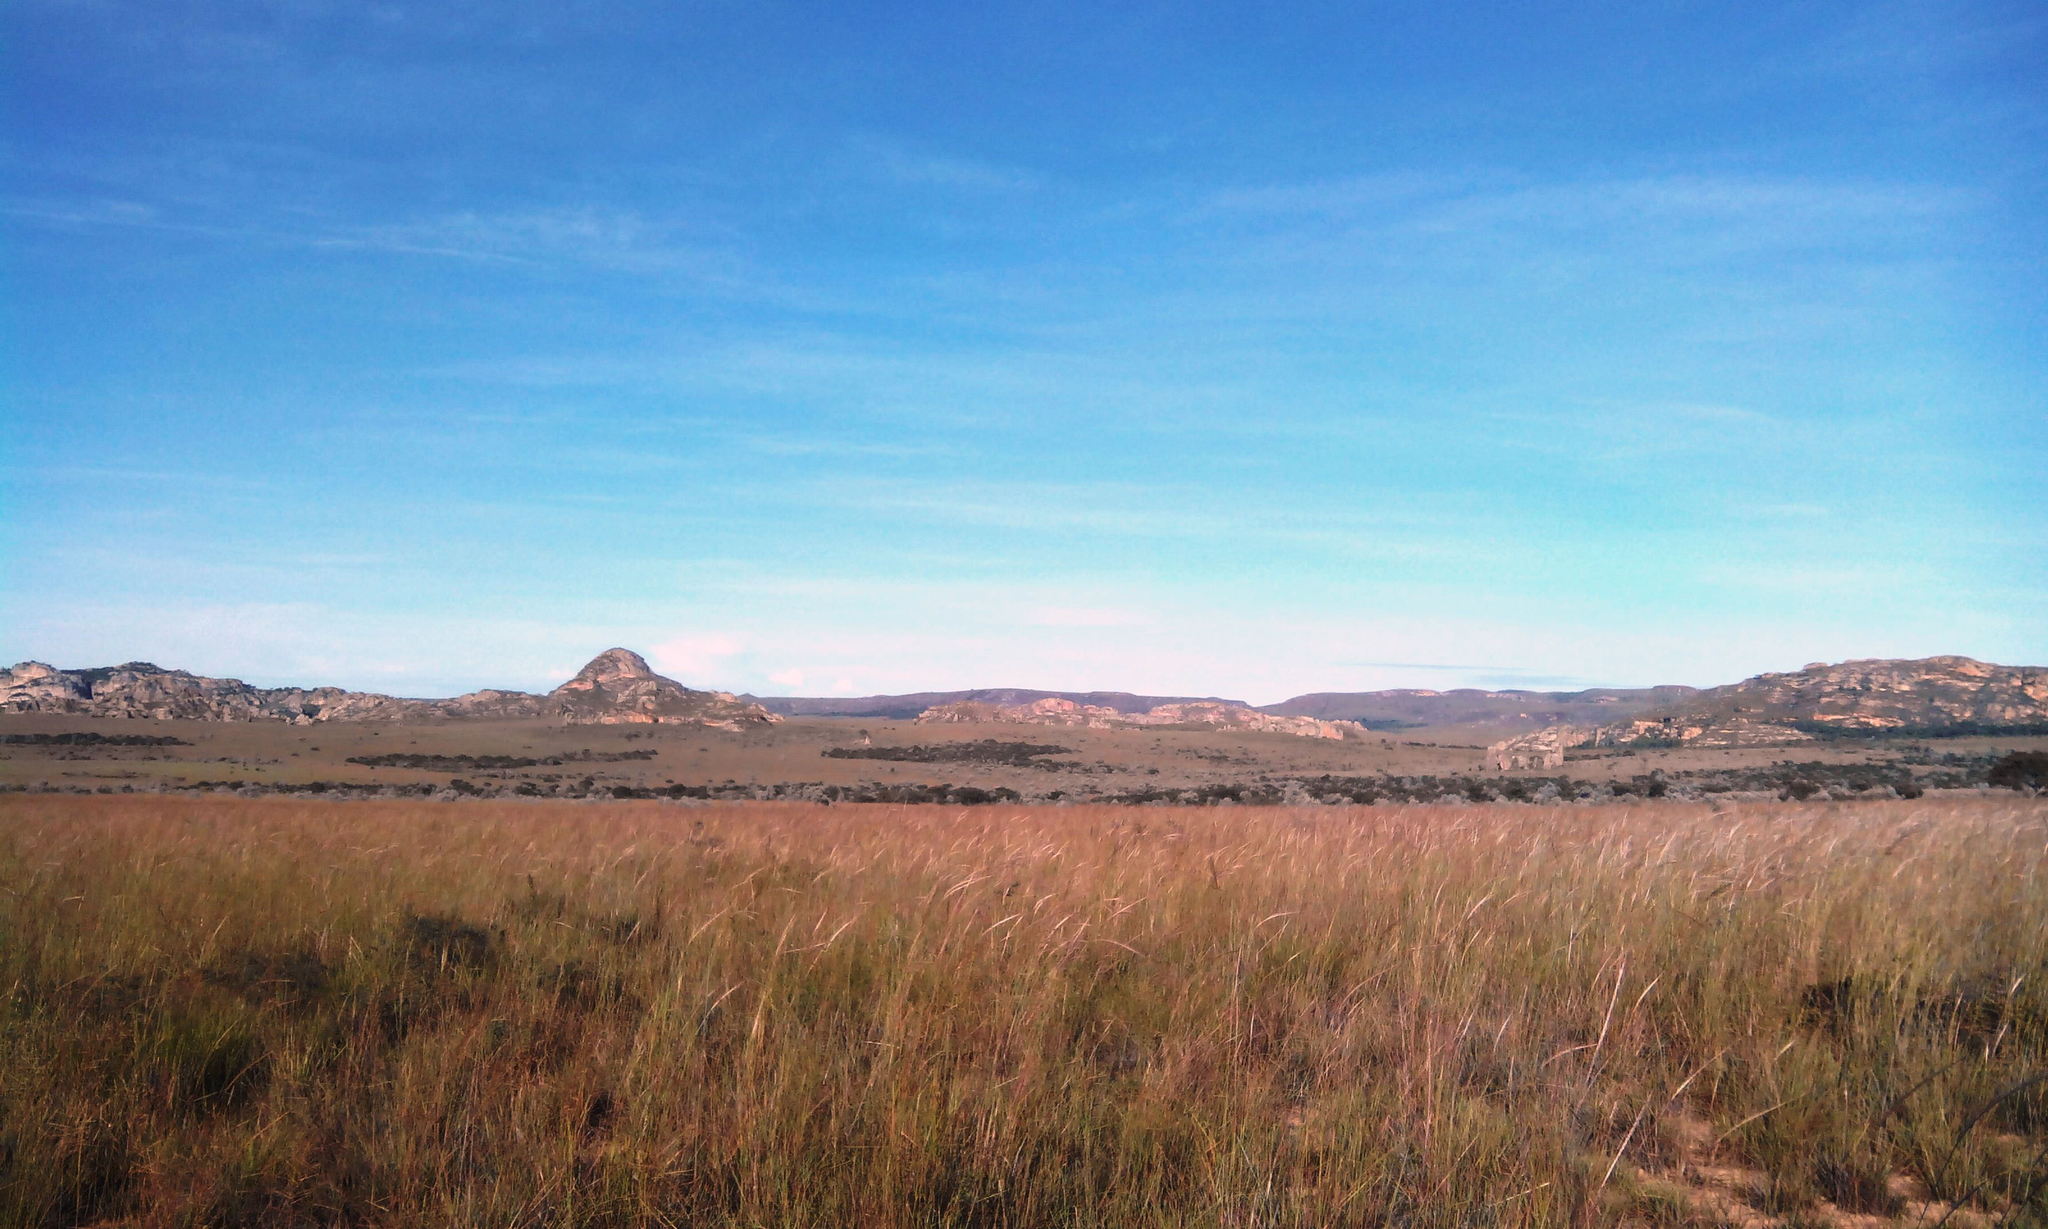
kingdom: Plantae
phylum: Tracheophyta
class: Liliopsida
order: Poales
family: Poaceae
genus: Trachypogon
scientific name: Trachypogon spicatus
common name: Crinkle-awn
